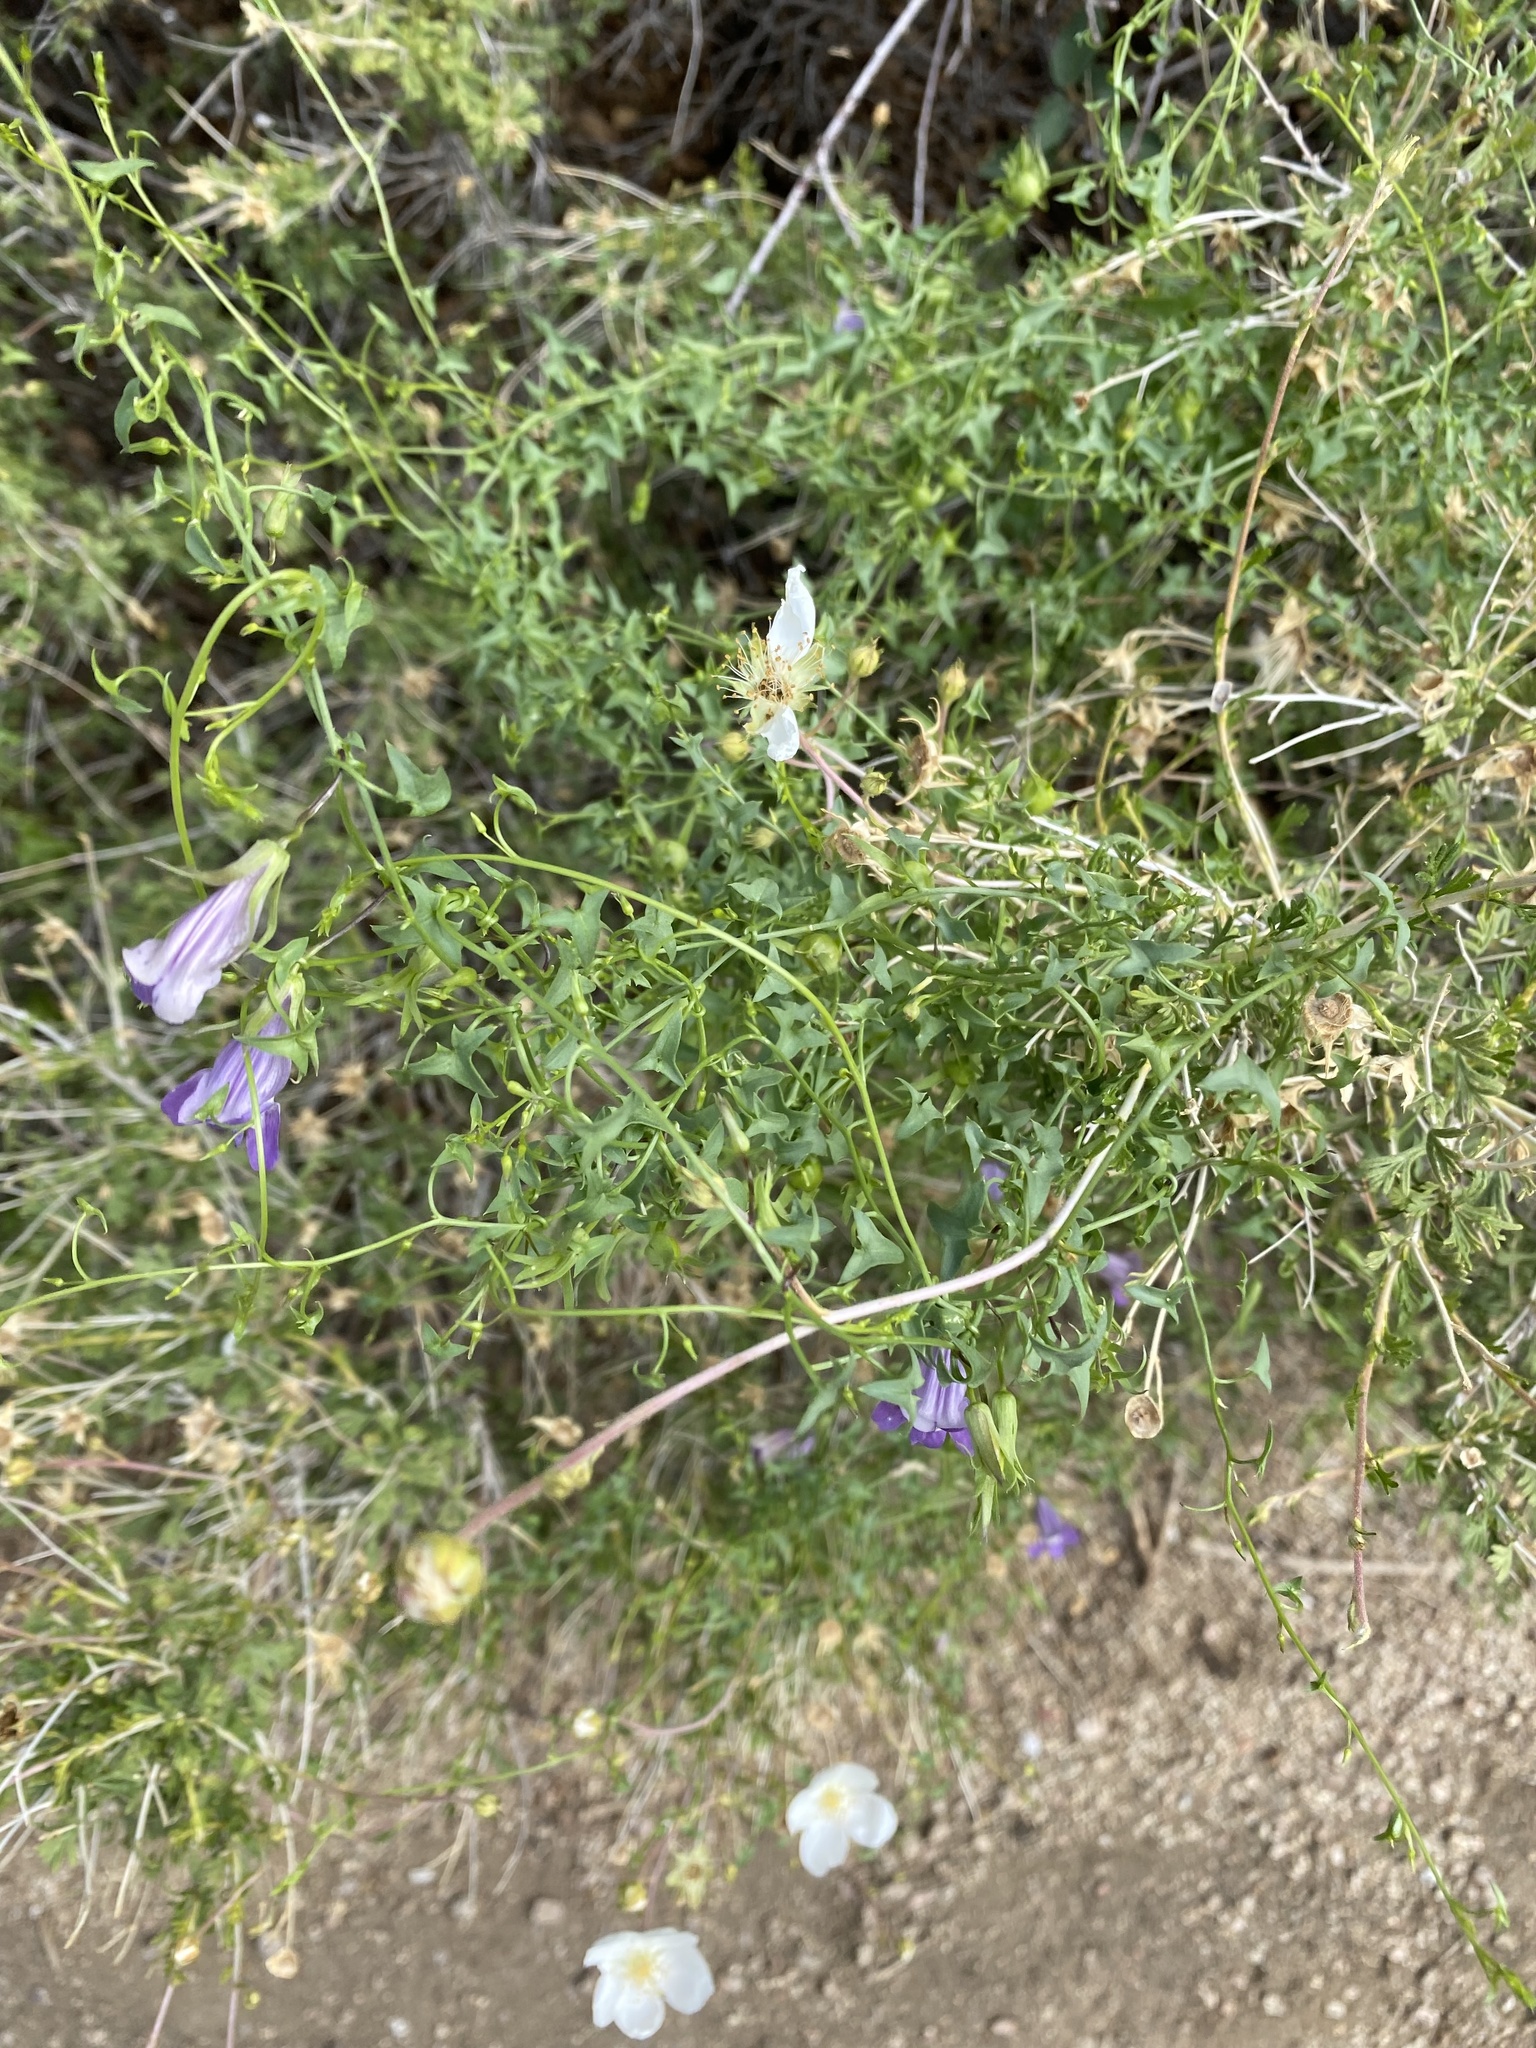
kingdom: Plantae
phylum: Tracheophyta
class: Magnoliopsida
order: Lamiales
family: Plantaginaceae
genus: Maurandella
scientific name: Maurandella antirrhiniflora
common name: Violet twining-snapdragon
